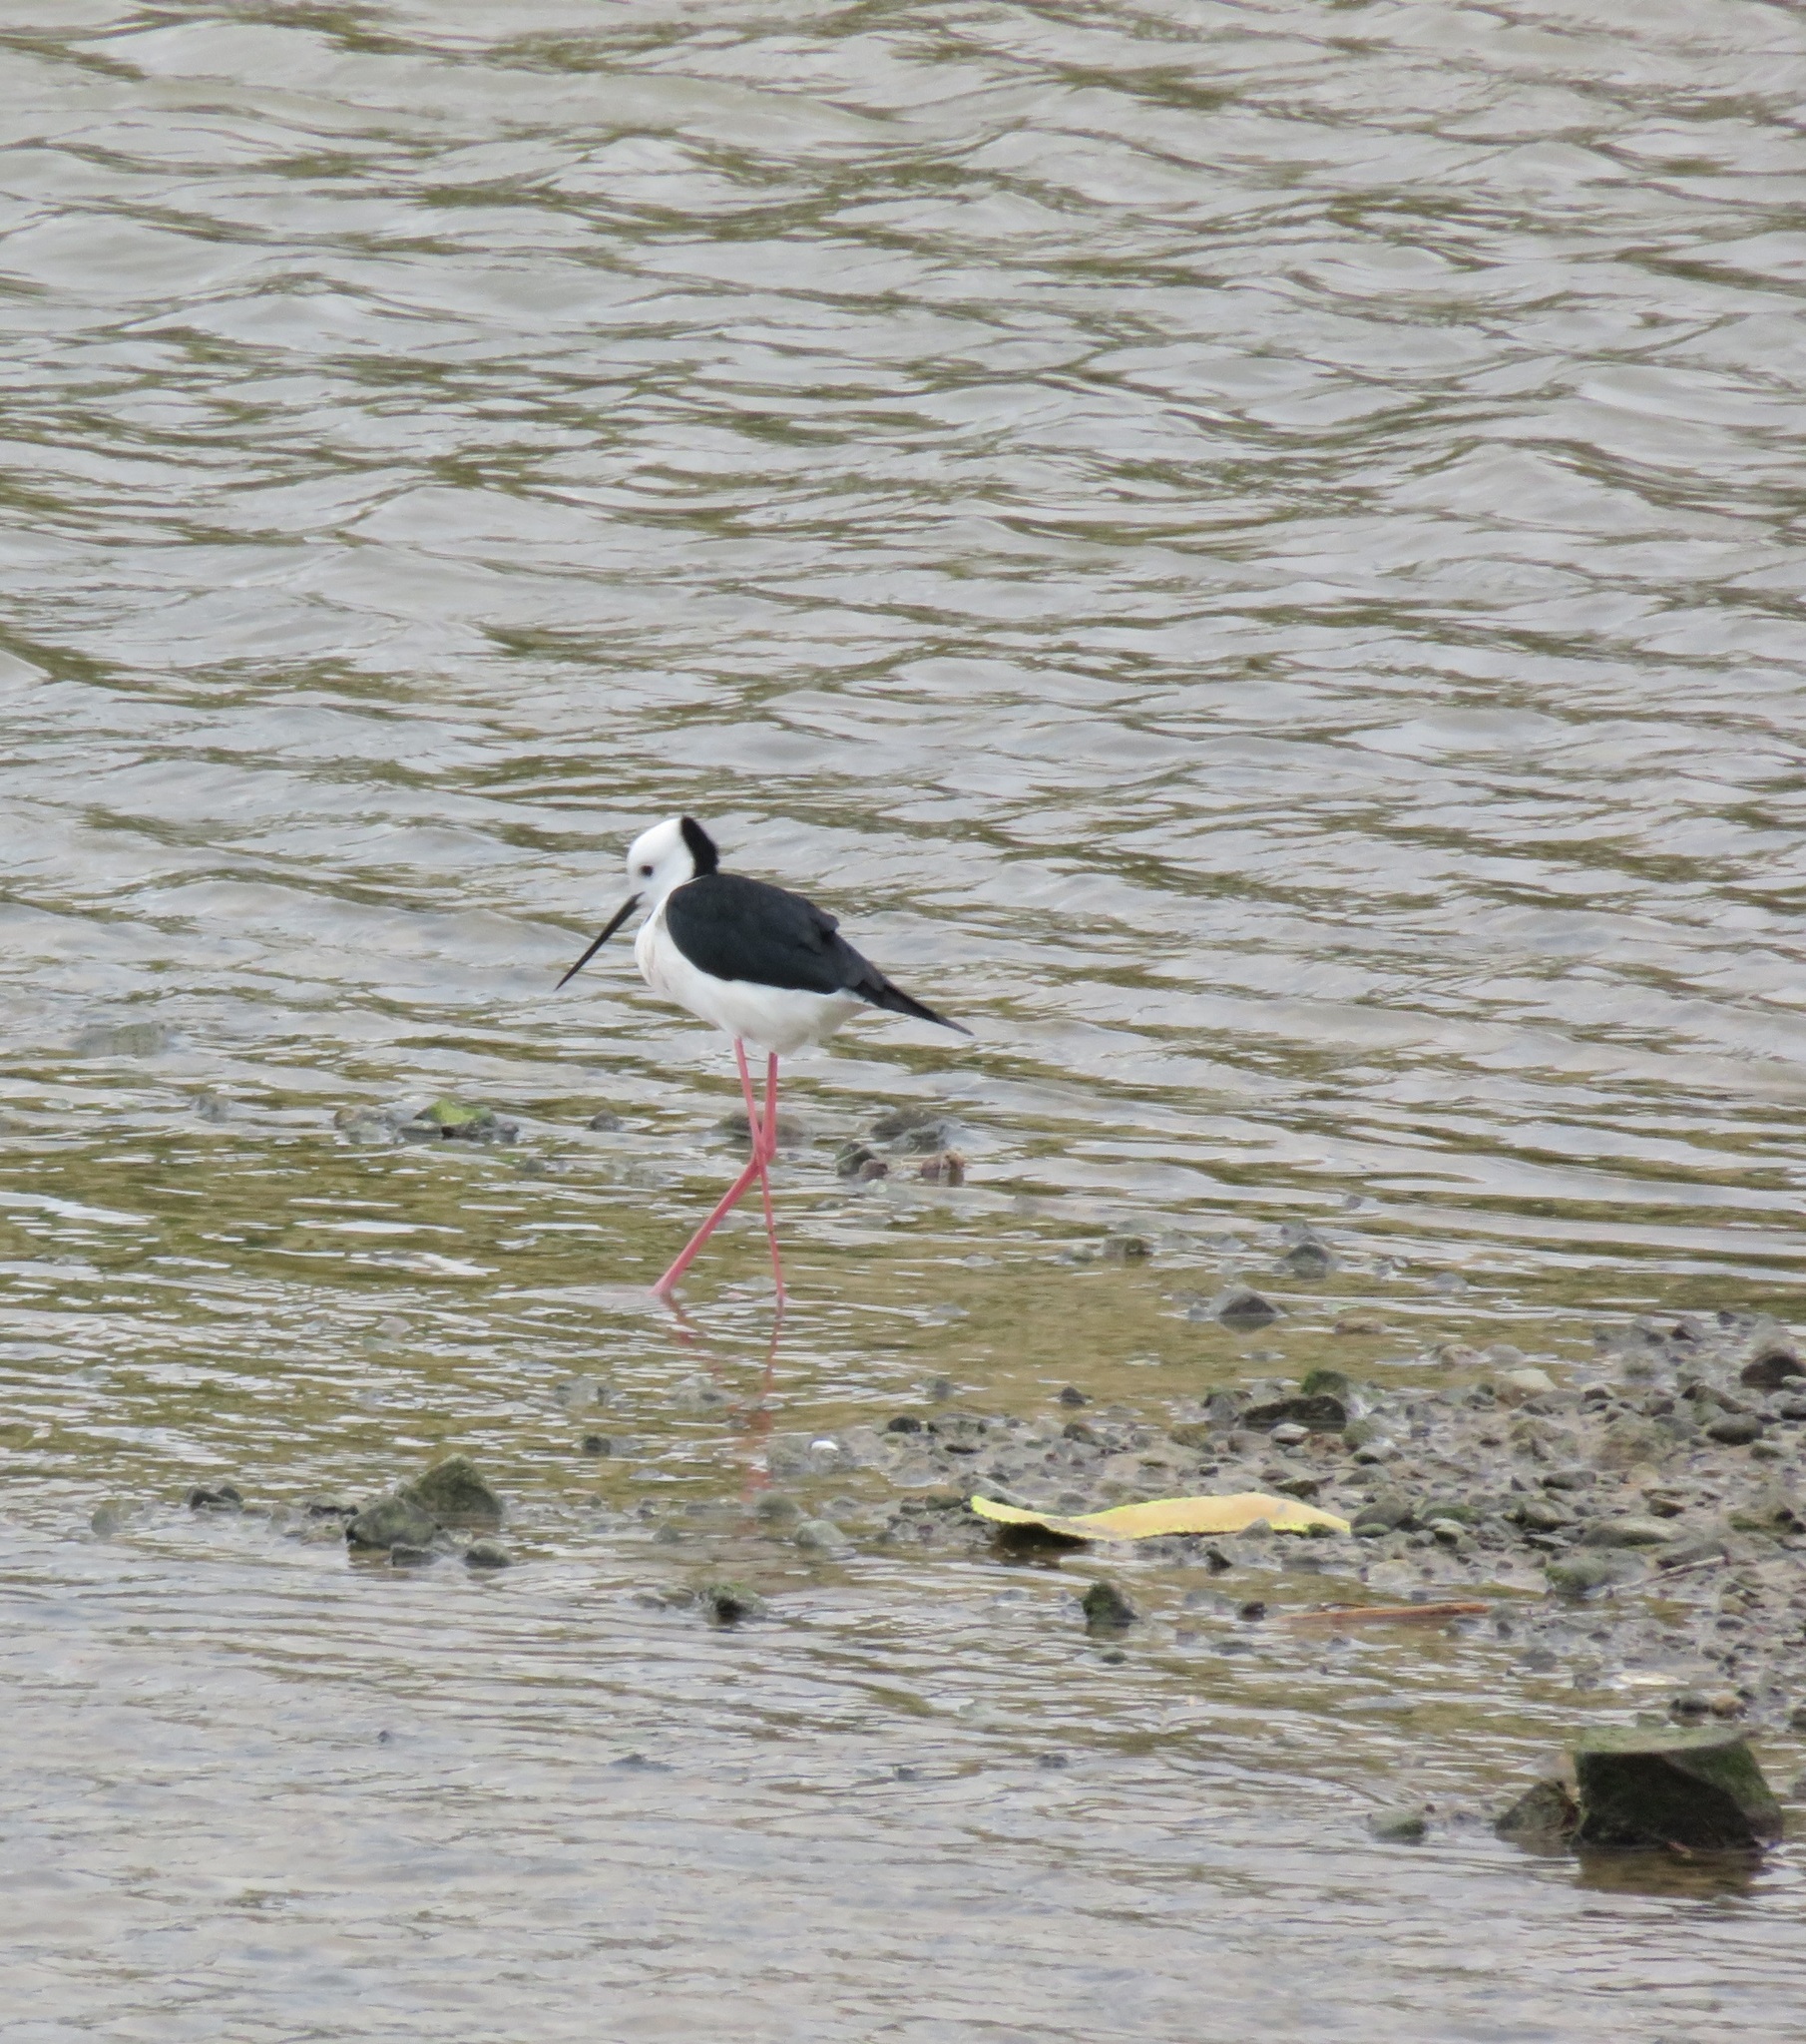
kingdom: Animalia
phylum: Chordata
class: Aves
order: Charadriiformes
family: Recurvirostridae
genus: Himantopus
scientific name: Himantopus leucocephalus
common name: White-headed stilt
